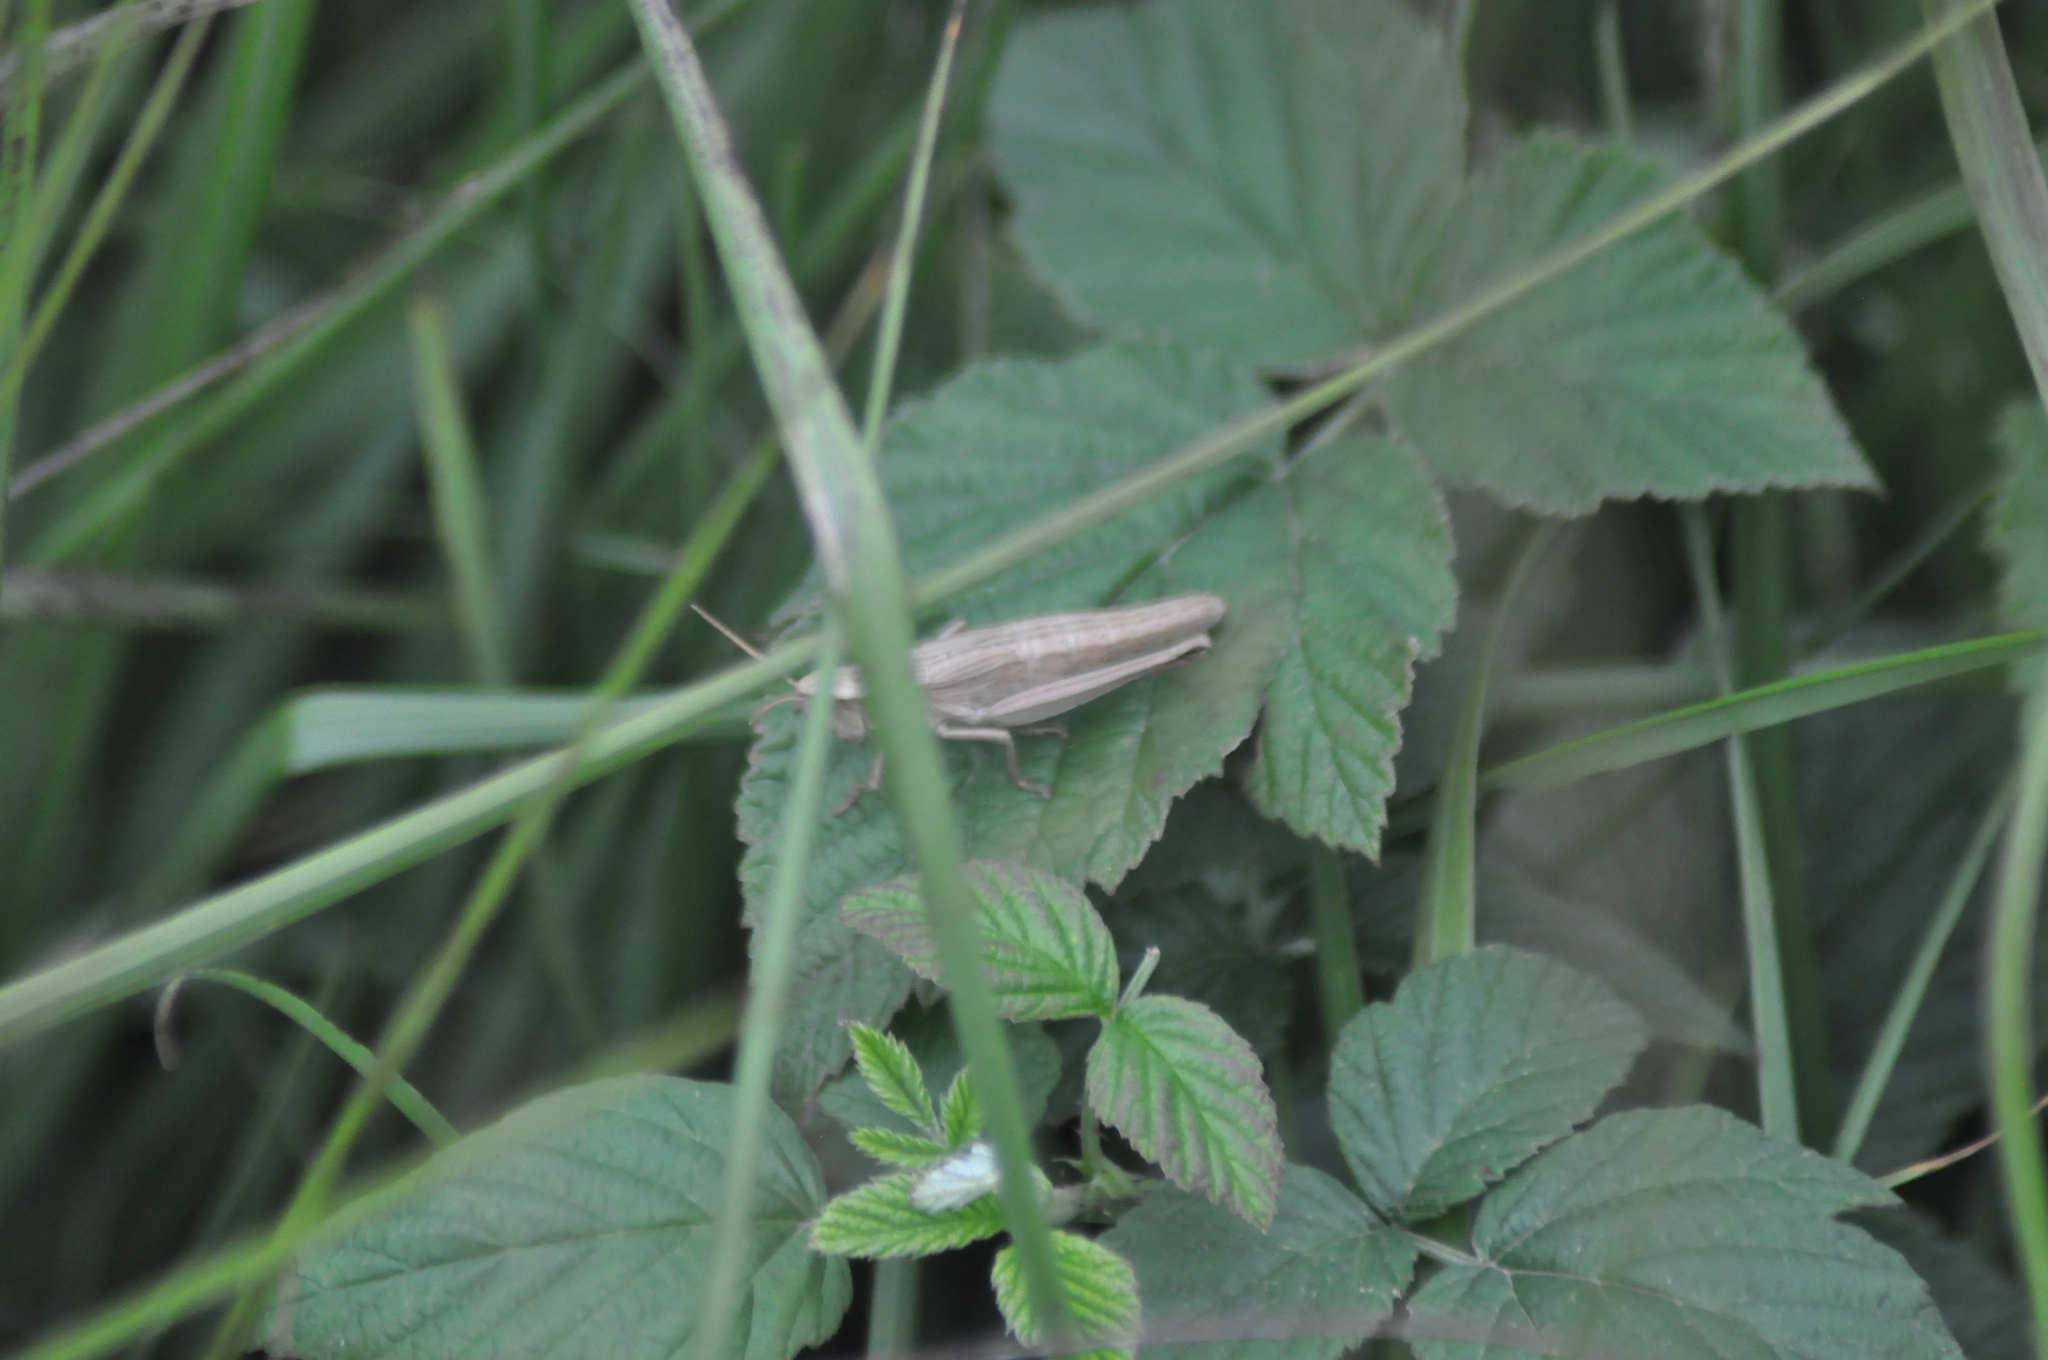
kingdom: Animalia
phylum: Arthropoda
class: Insecta
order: Orthoptera
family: Acrididae
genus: Chrysochraon
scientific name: Chrysochraon dispar
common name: Large gold grasshopper
